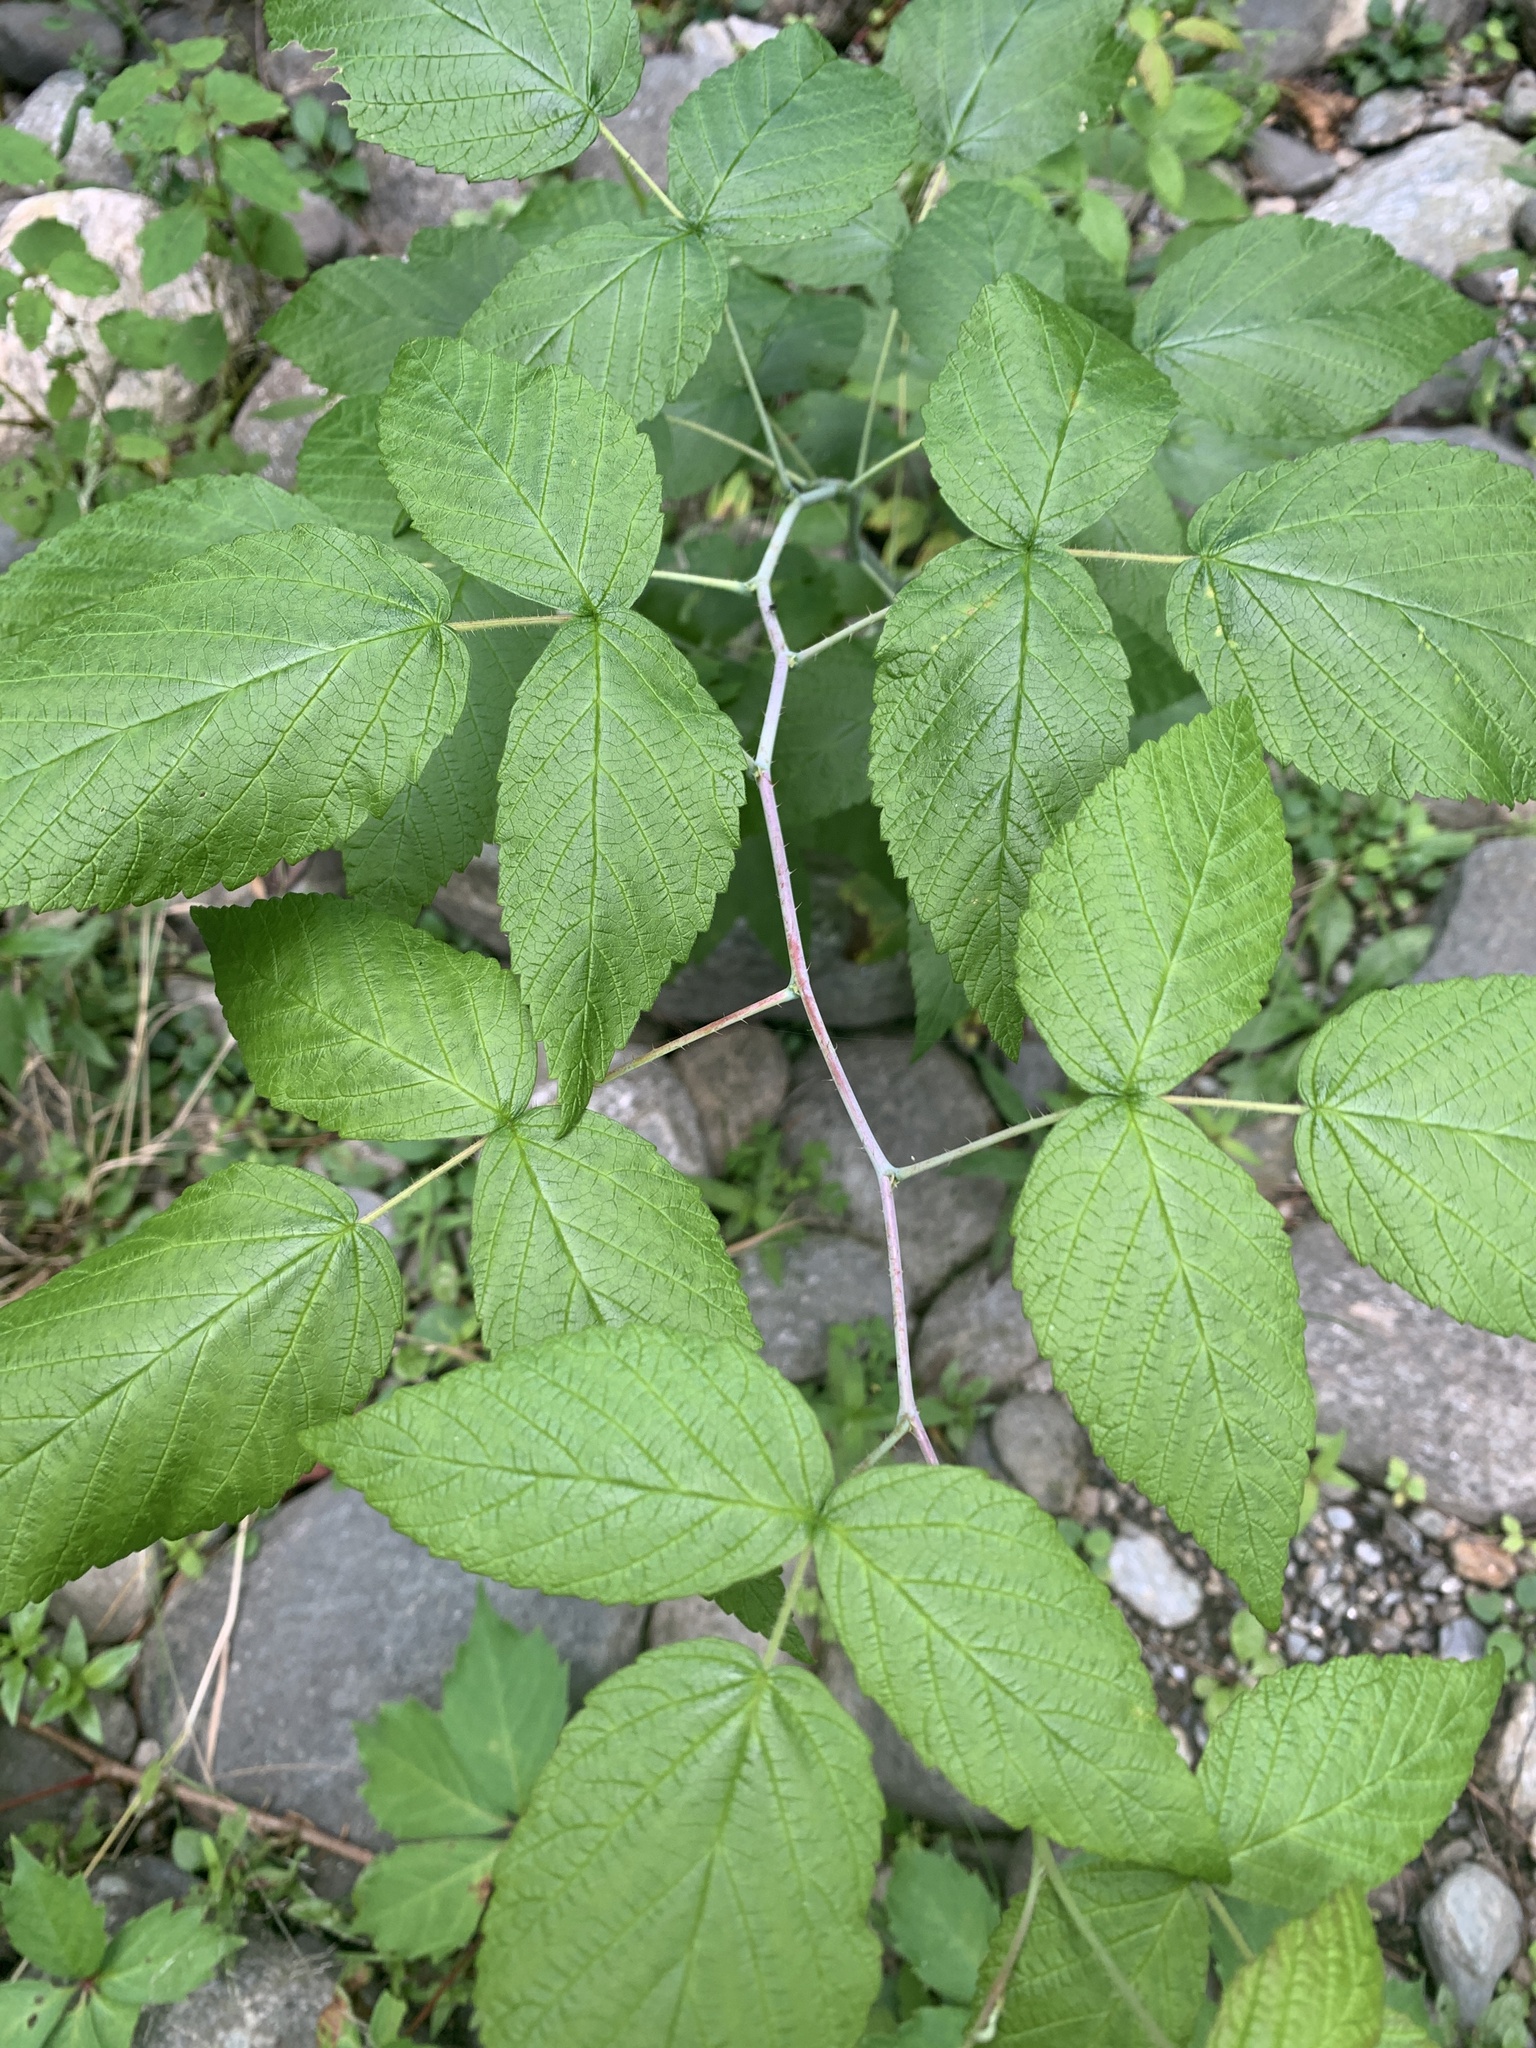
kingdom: Plantae
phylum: Tracheophyta
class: Magnoliopsida
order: Rosales
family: Rosaceae
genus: Rubus
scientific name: Rubus occidentalis
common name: Black raspberry
